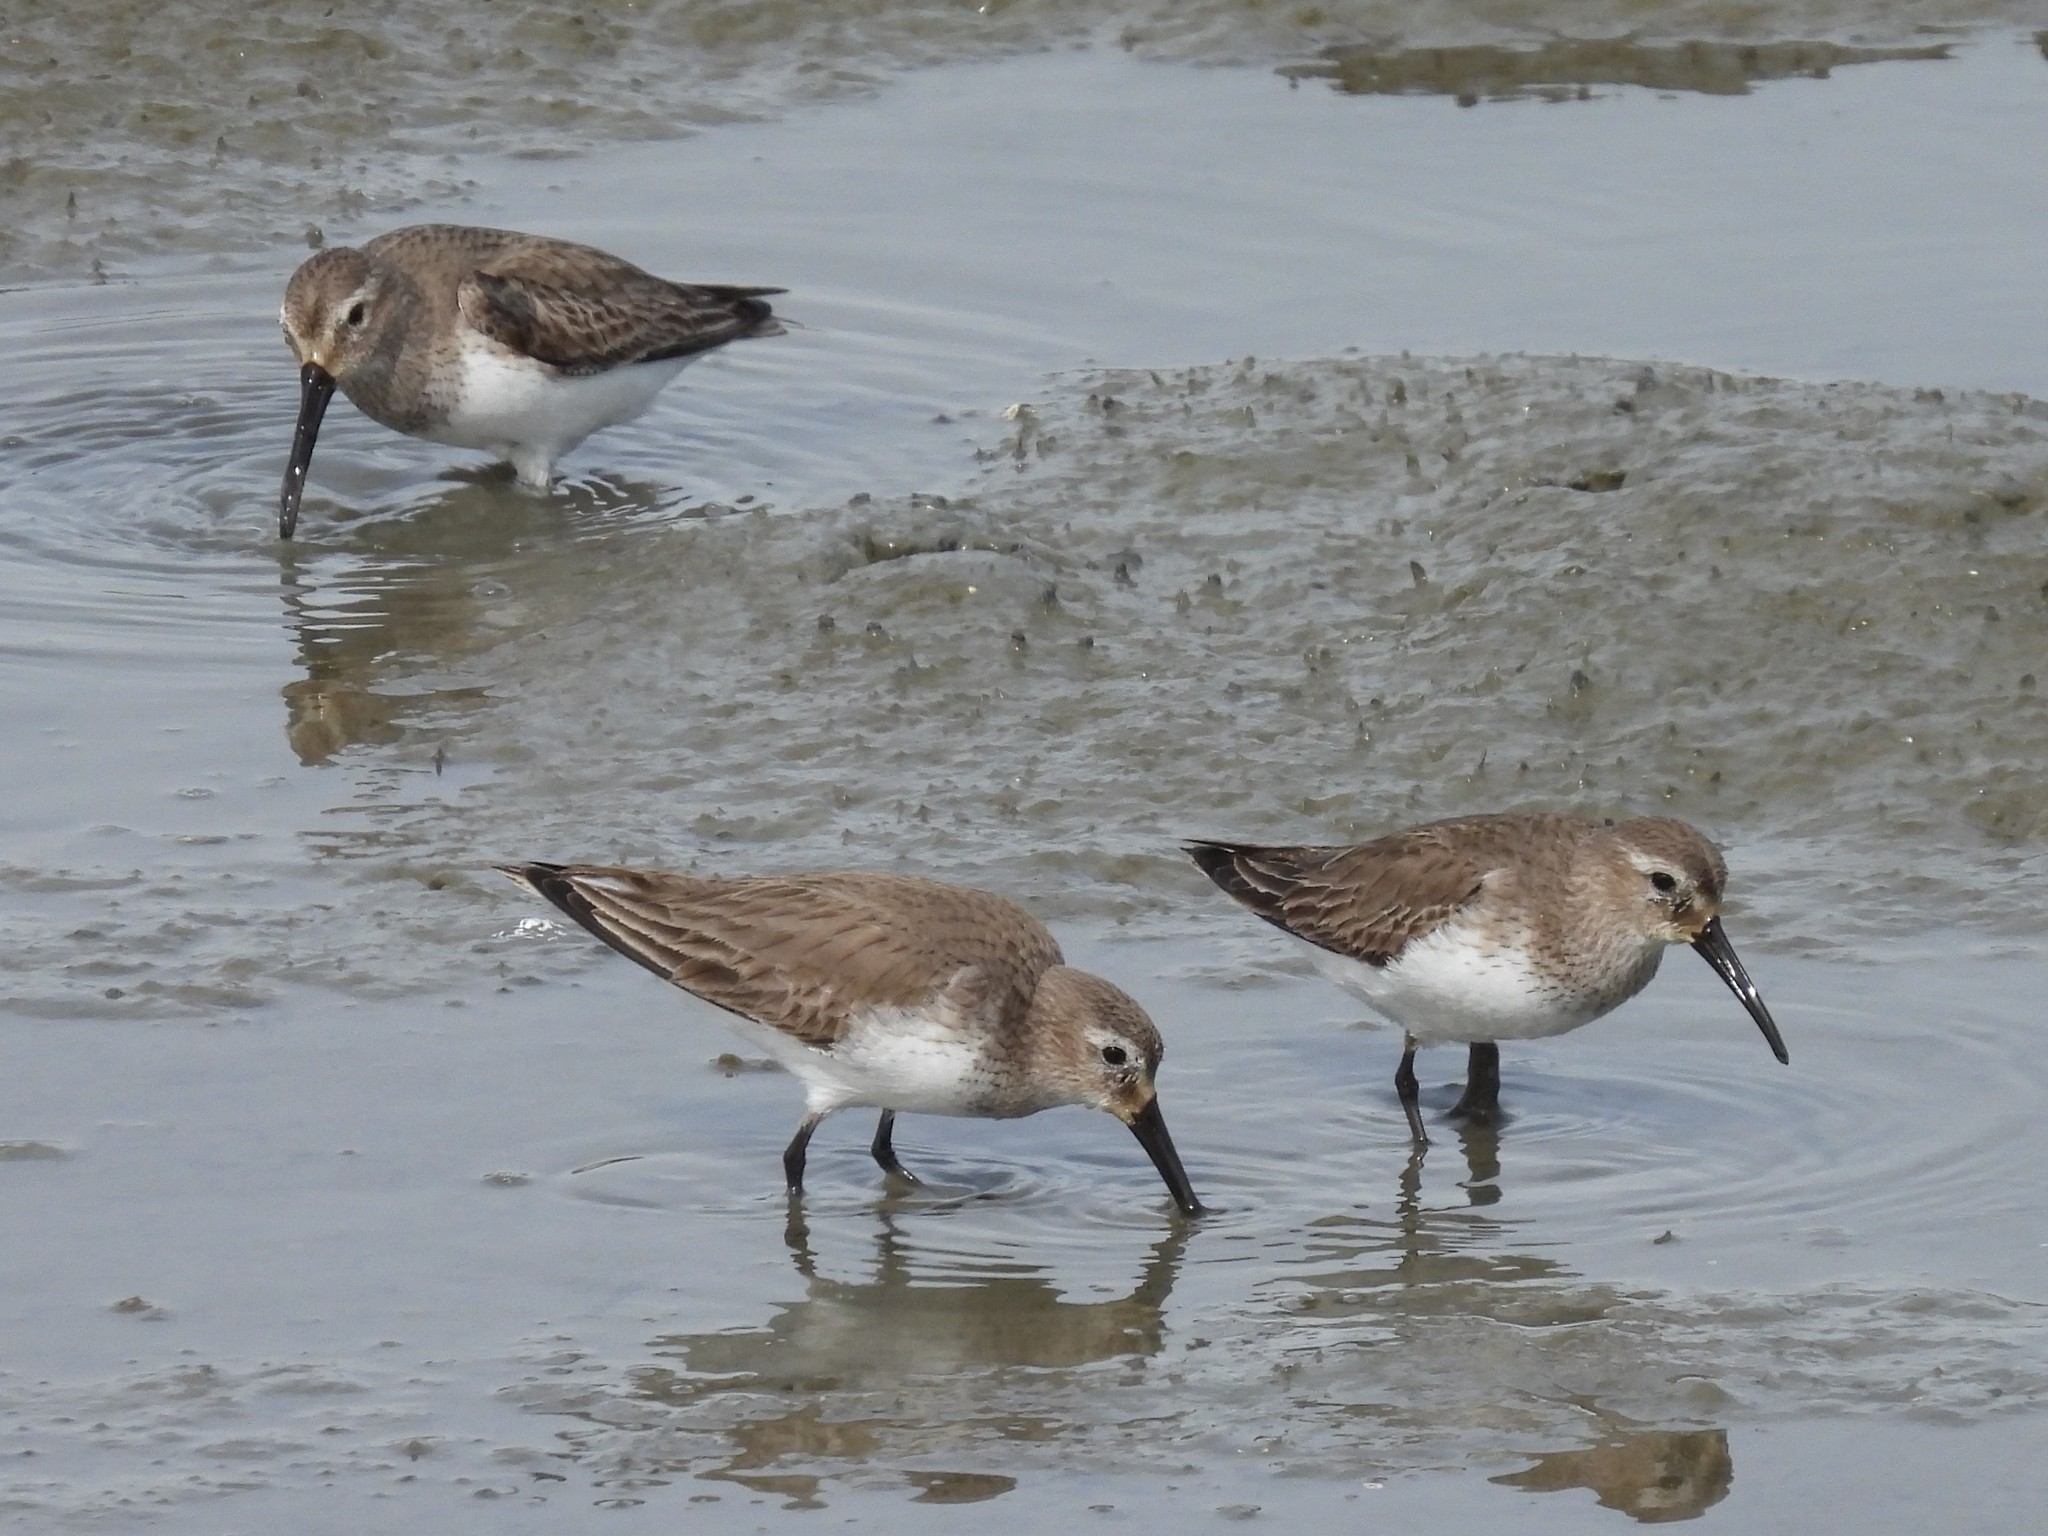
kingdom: Animalia
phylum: Chordata
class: Aves
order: Charadriiformes
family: Scolopacidae
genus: Calidris
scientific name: Calidris alpina
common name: Dunlin
